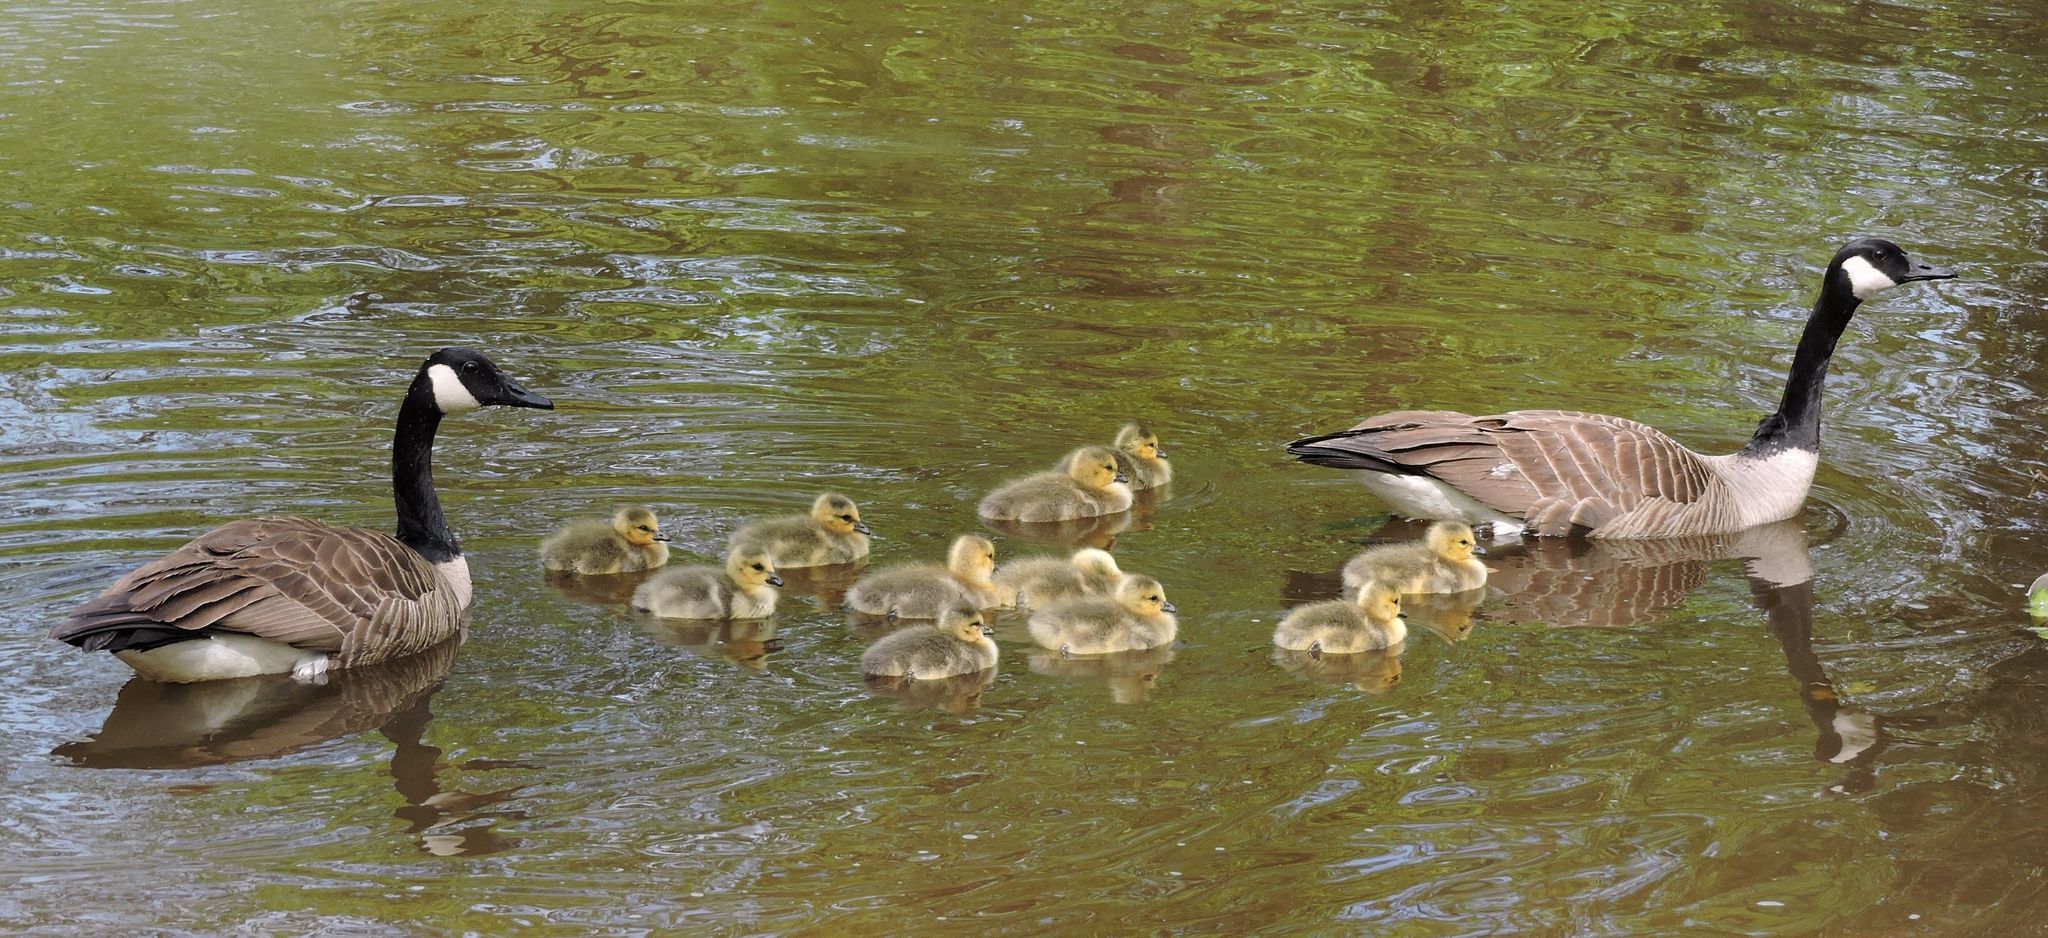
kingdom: Animalia
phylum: Chordata
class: Aves
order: Anseriformes
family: Anatidae
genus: Branta
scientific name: Branta canadensis
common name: Canada goose
